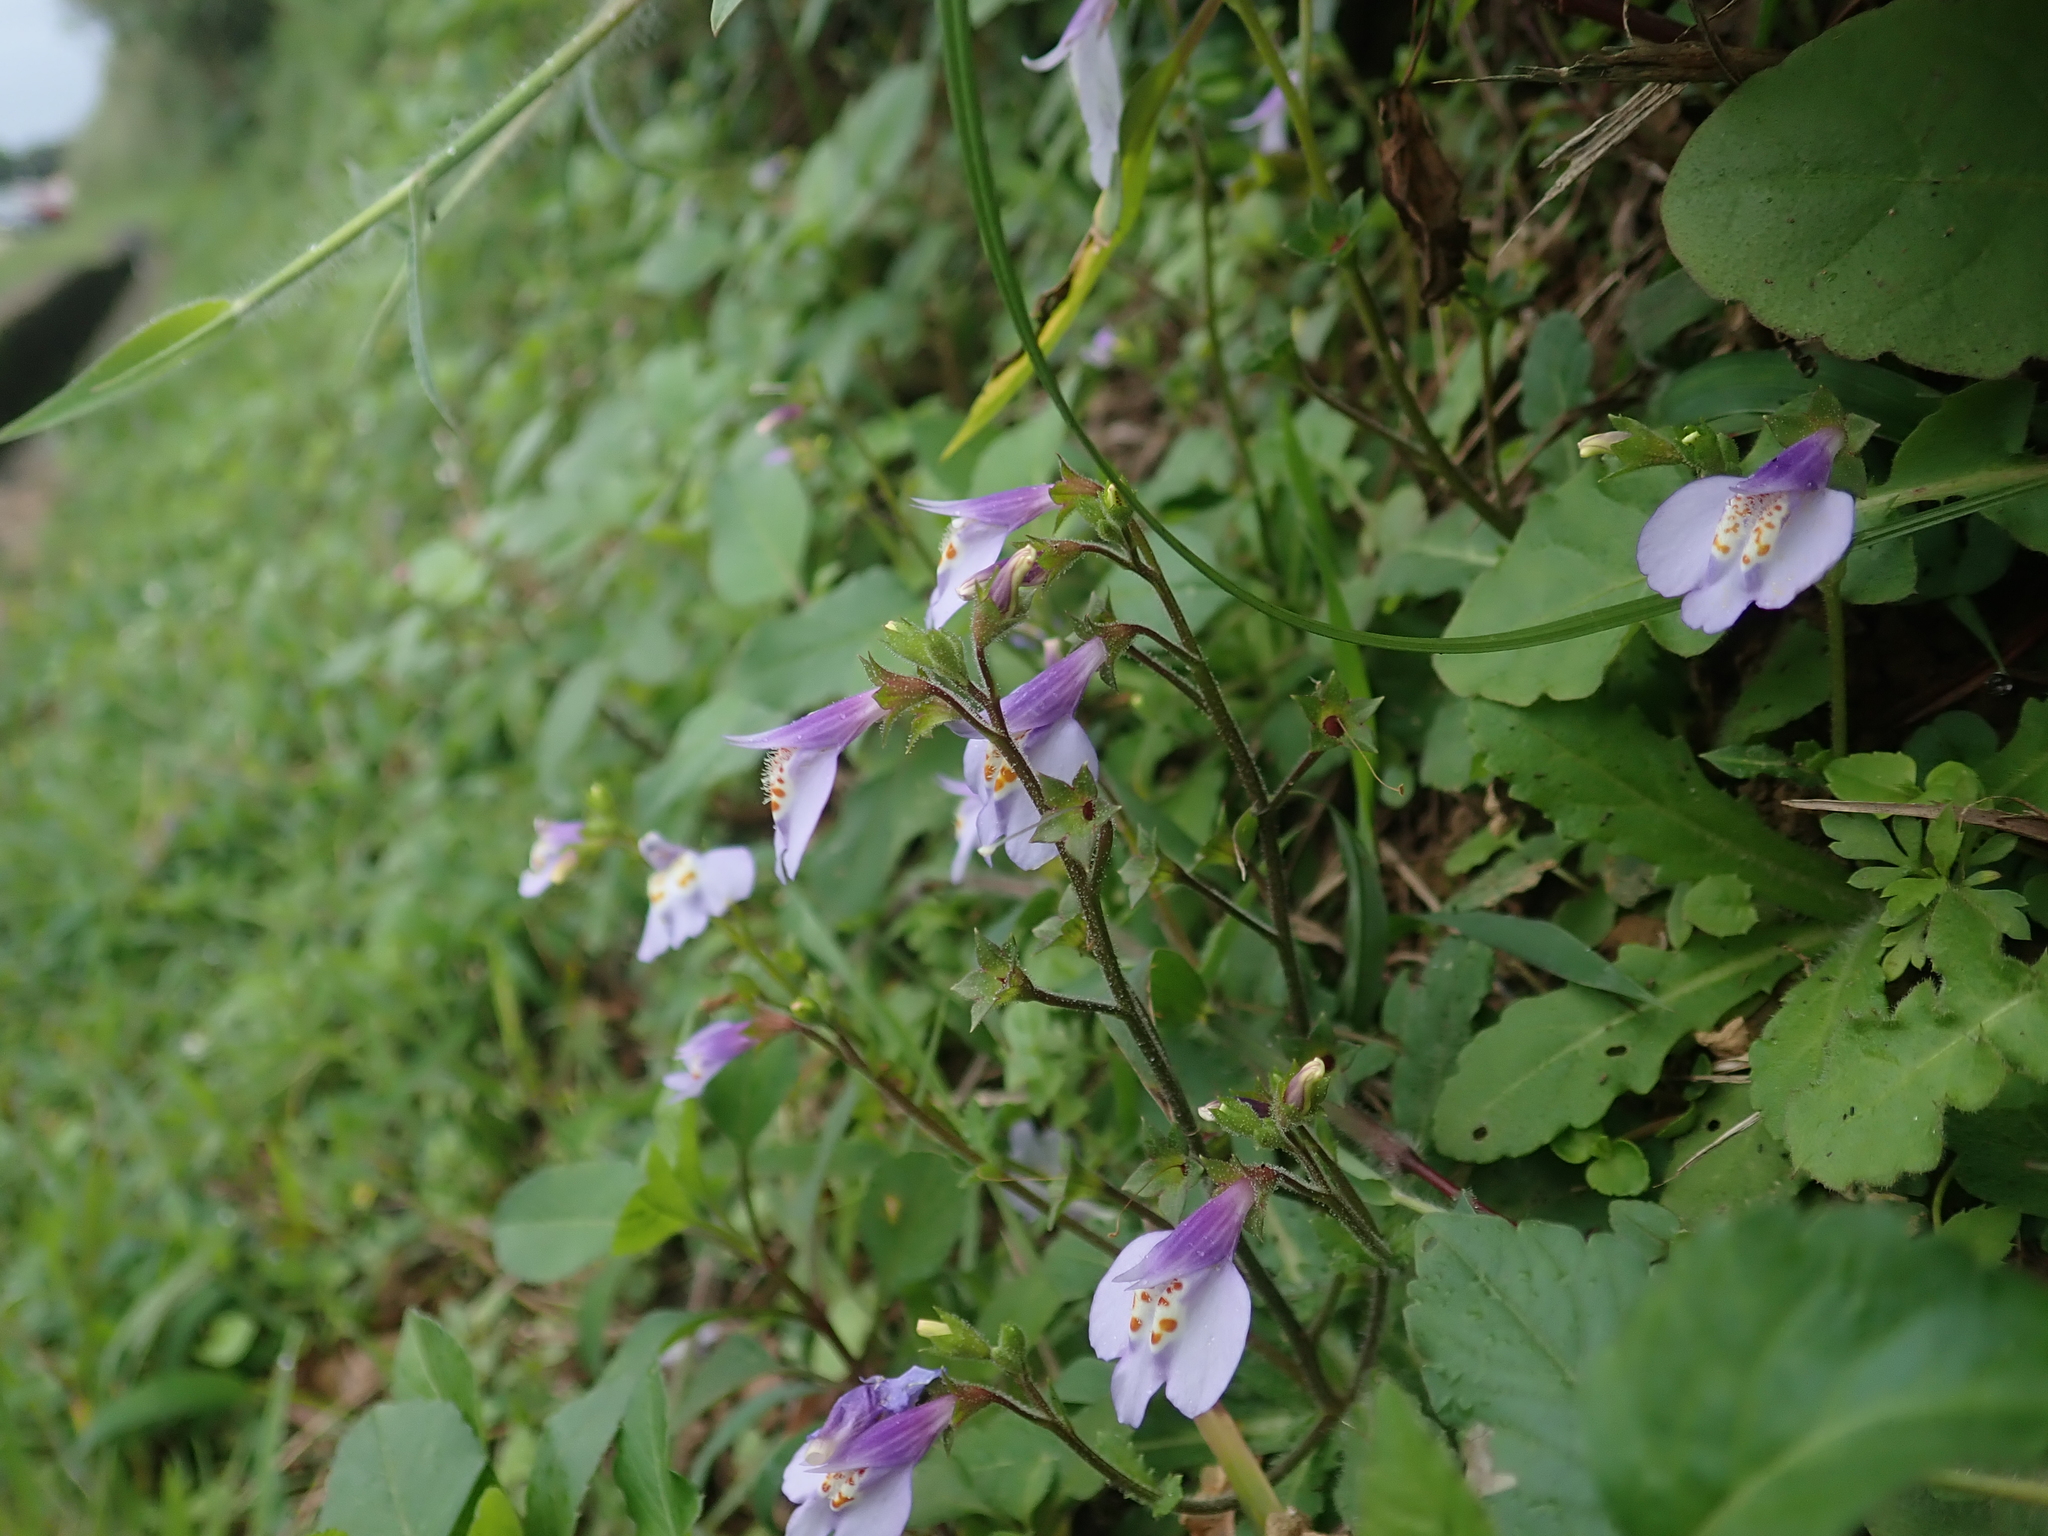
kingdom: Plantae
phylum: Tracheophyta
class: Magnoliopsida
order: Lamiales
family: Mazaceae
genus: Mazus
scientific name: Mazus fauriei
